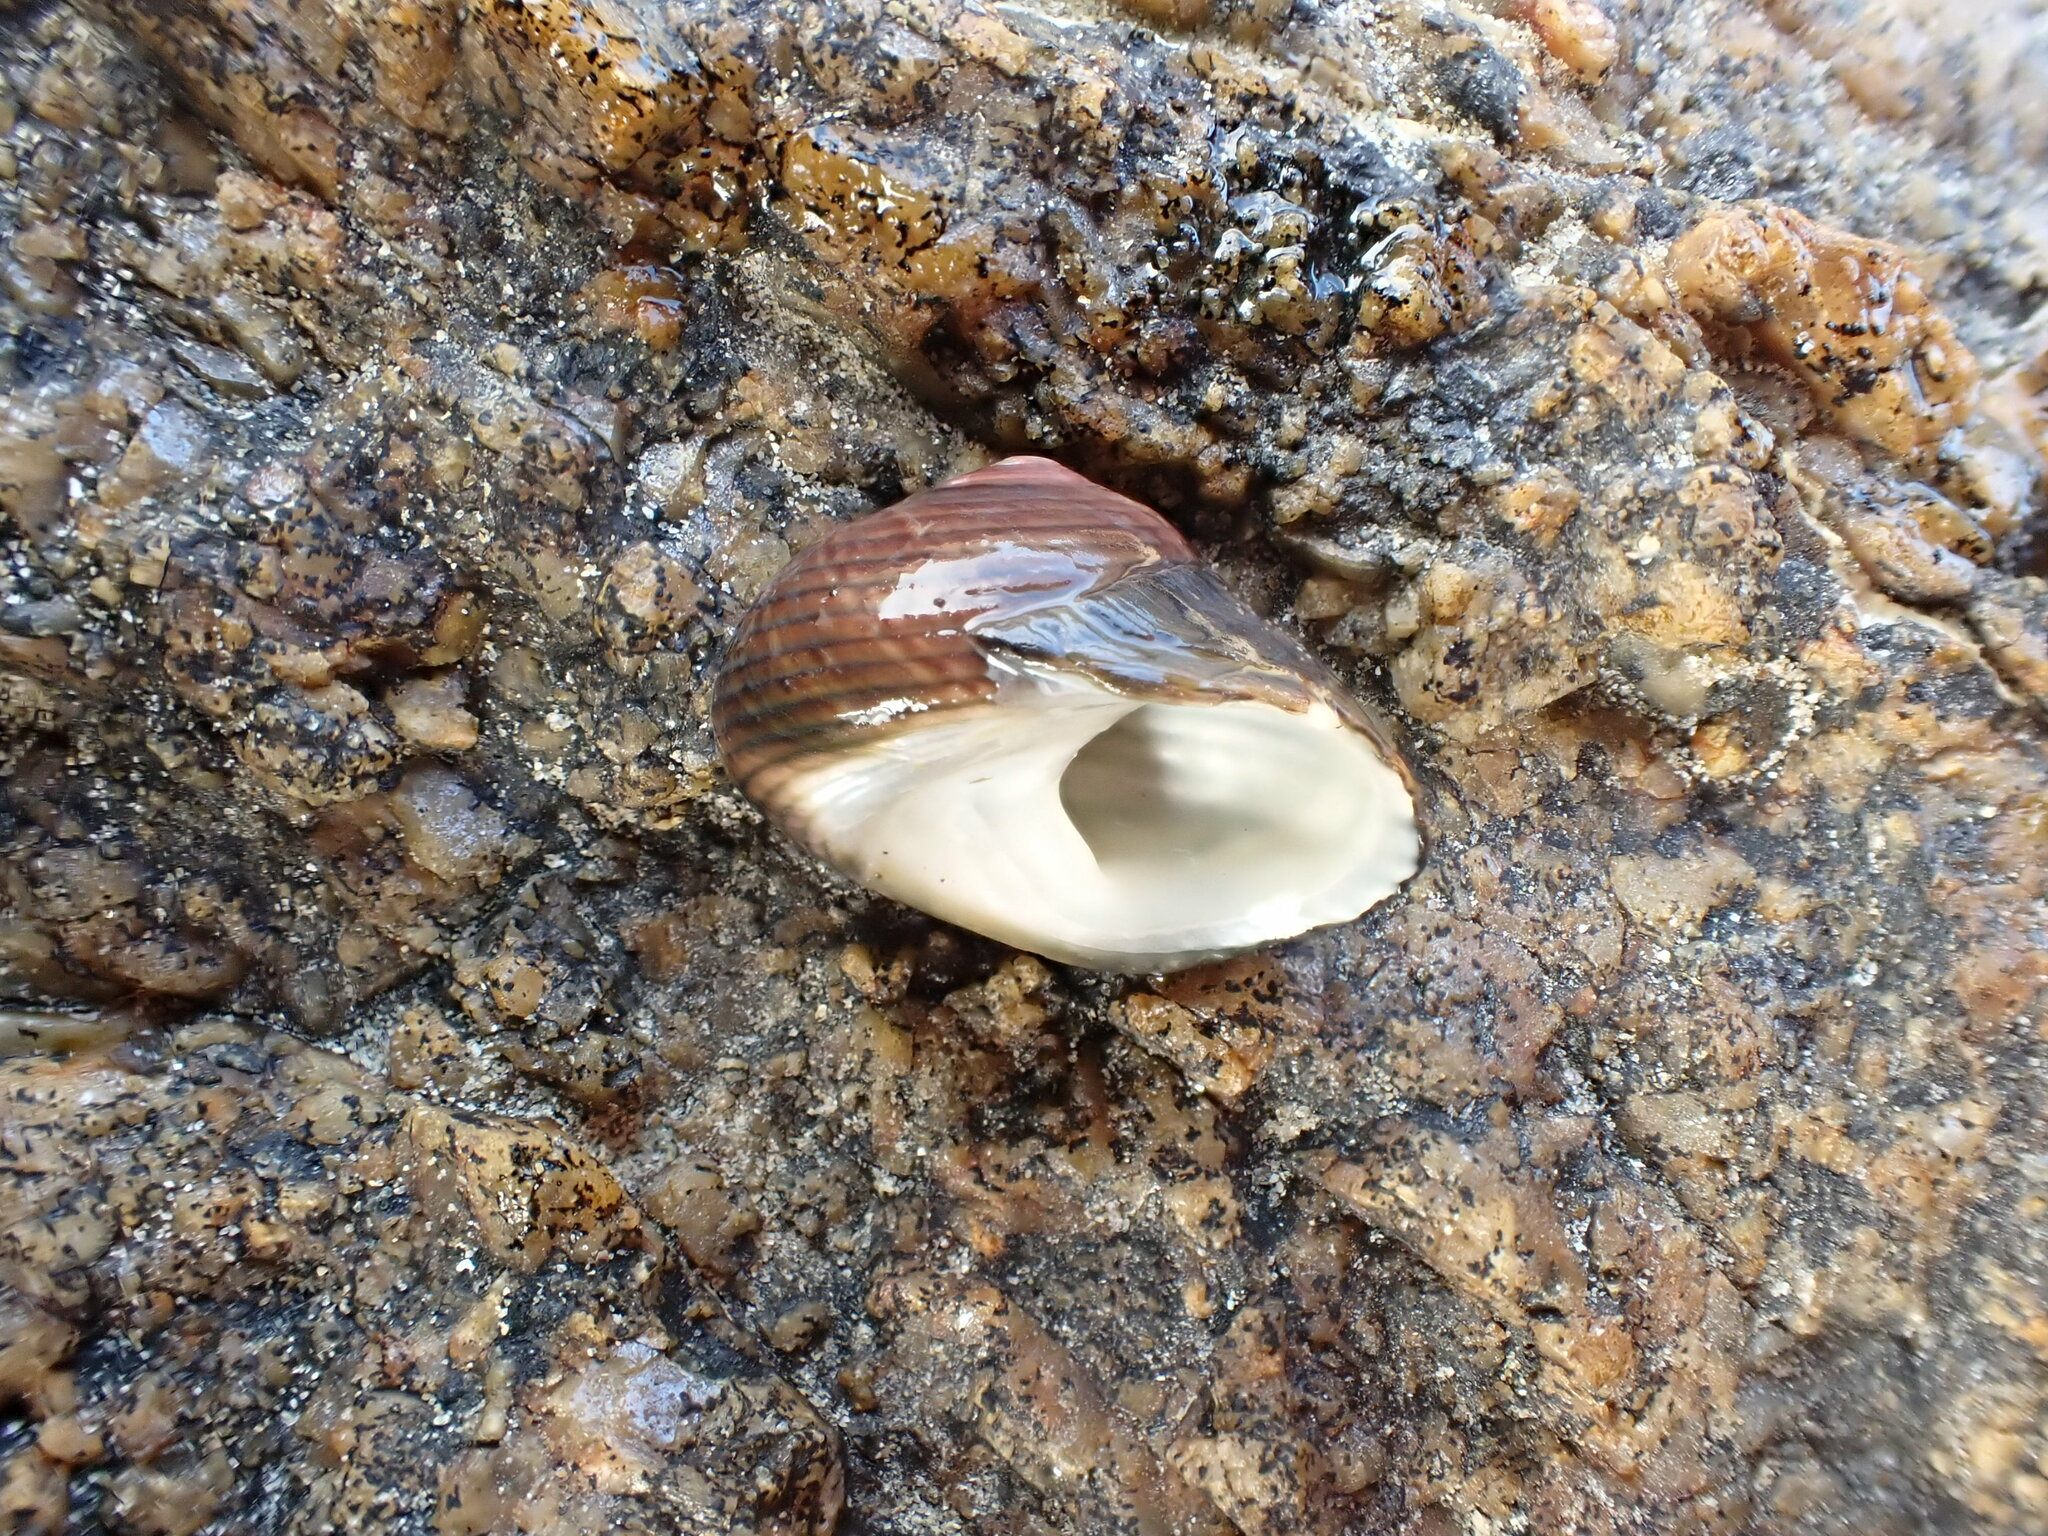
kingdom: Animalia
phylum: Mollusca
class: Gastropoda
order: Trochida
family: Trochidae
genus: Diloma
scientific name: Diloma nigerrimum
